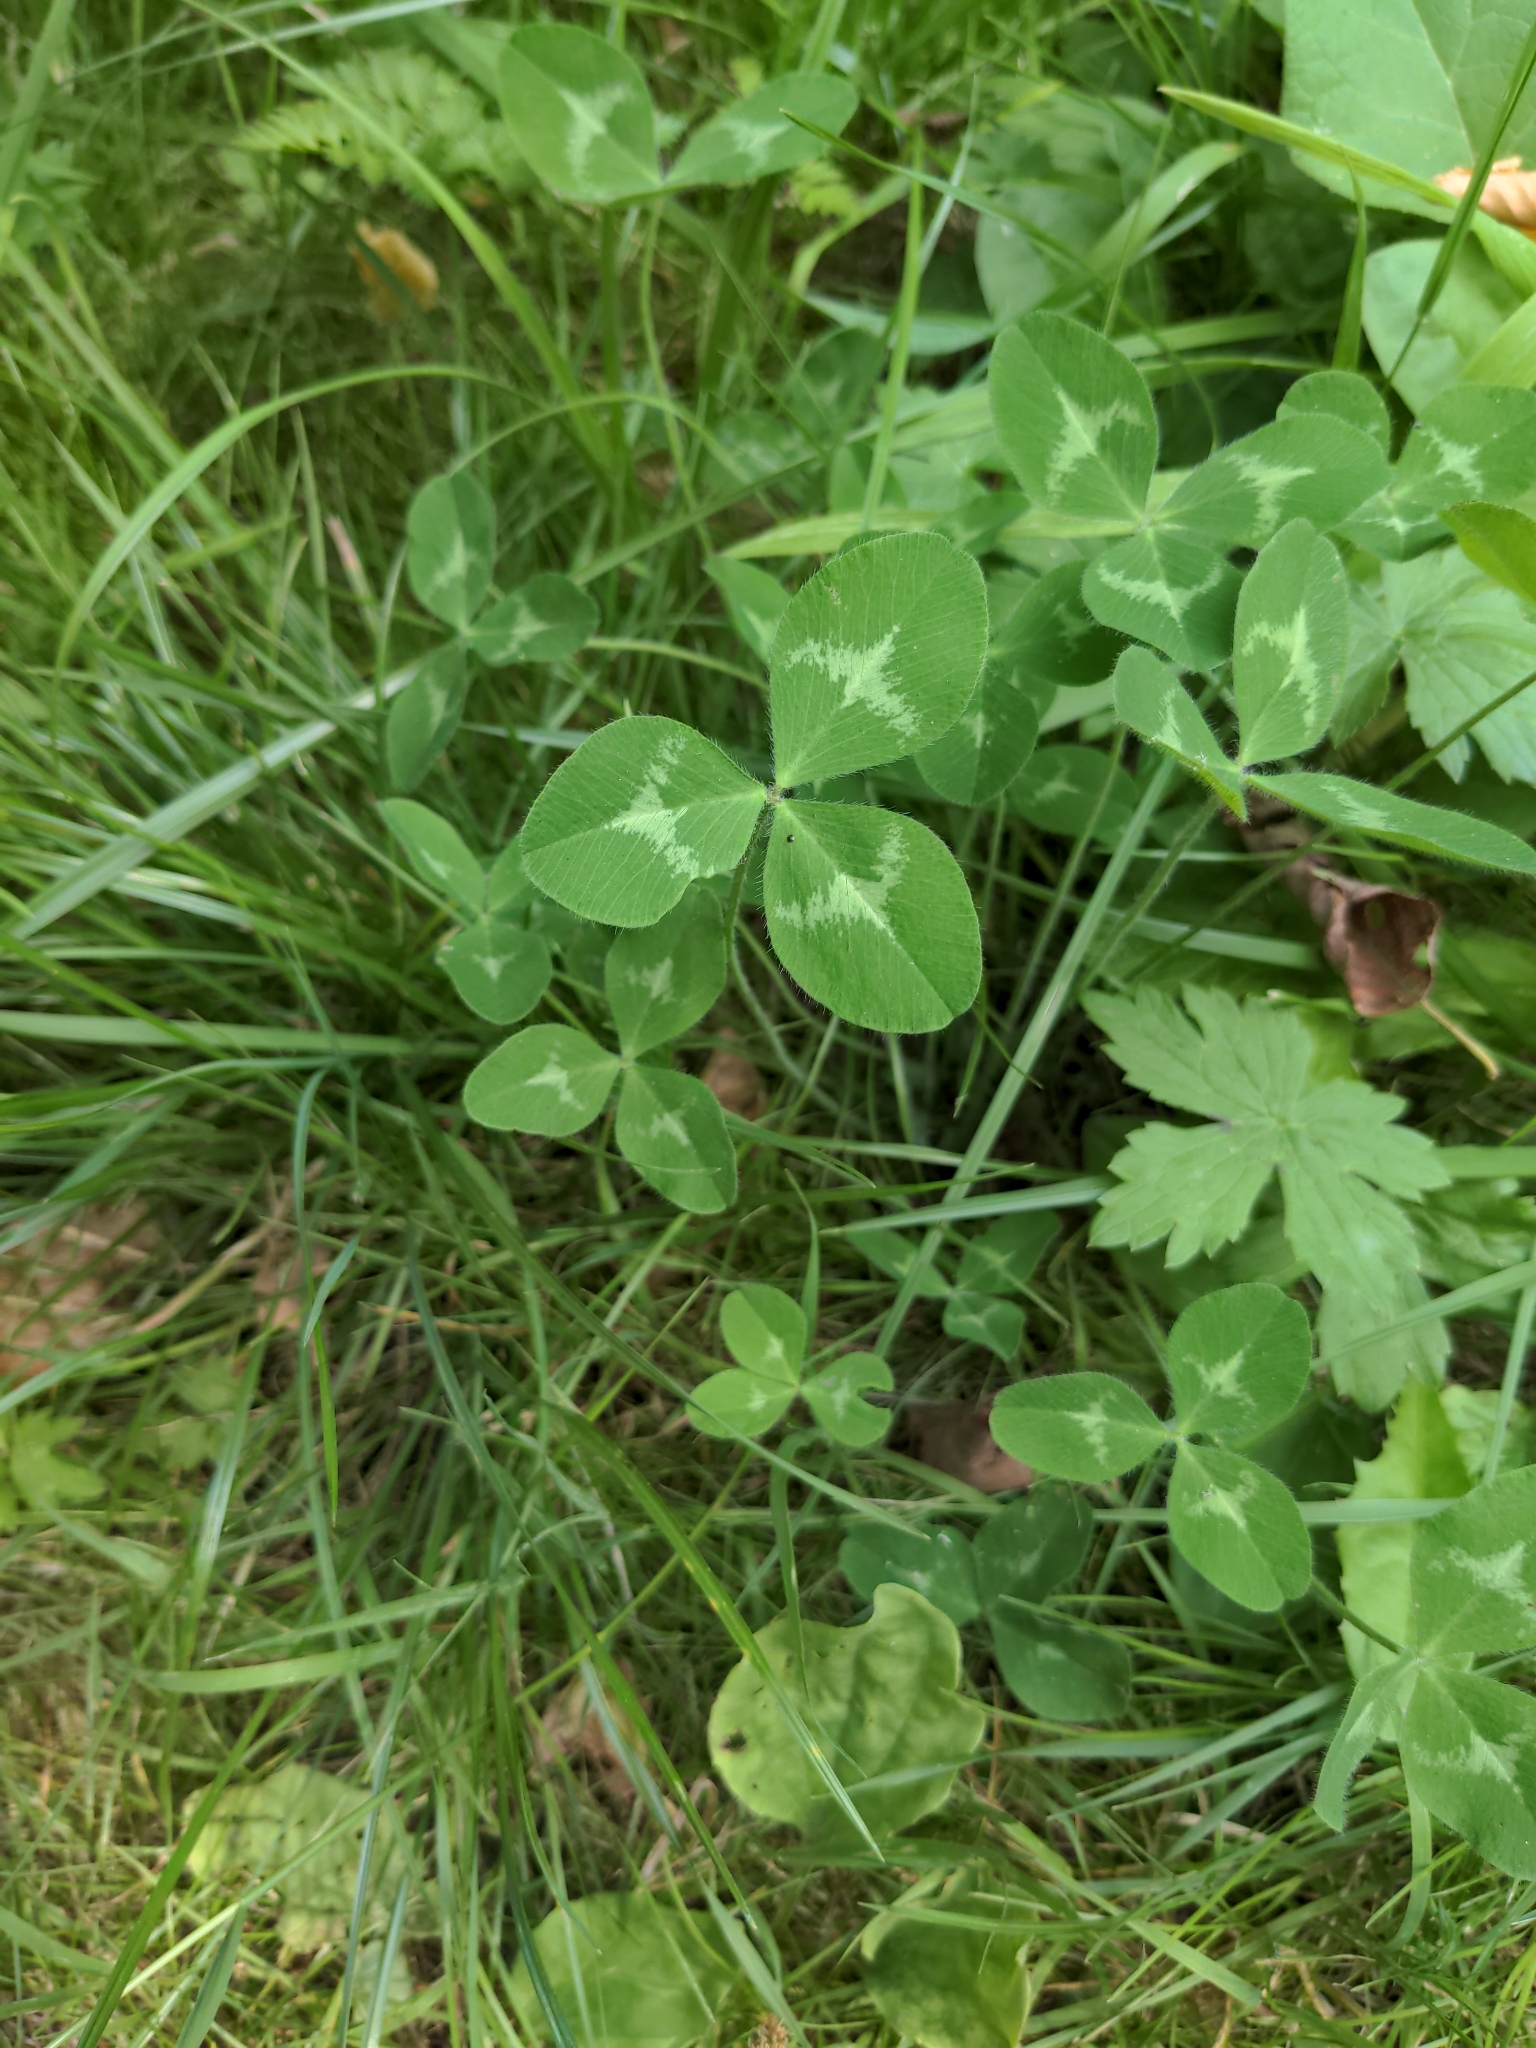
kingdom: Plantae
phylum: Tracheophyta
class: Magnoliopsida
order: Fabales
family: Fabaceae
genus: Trifolium
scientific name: Trifolium pratense
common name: Red clover
